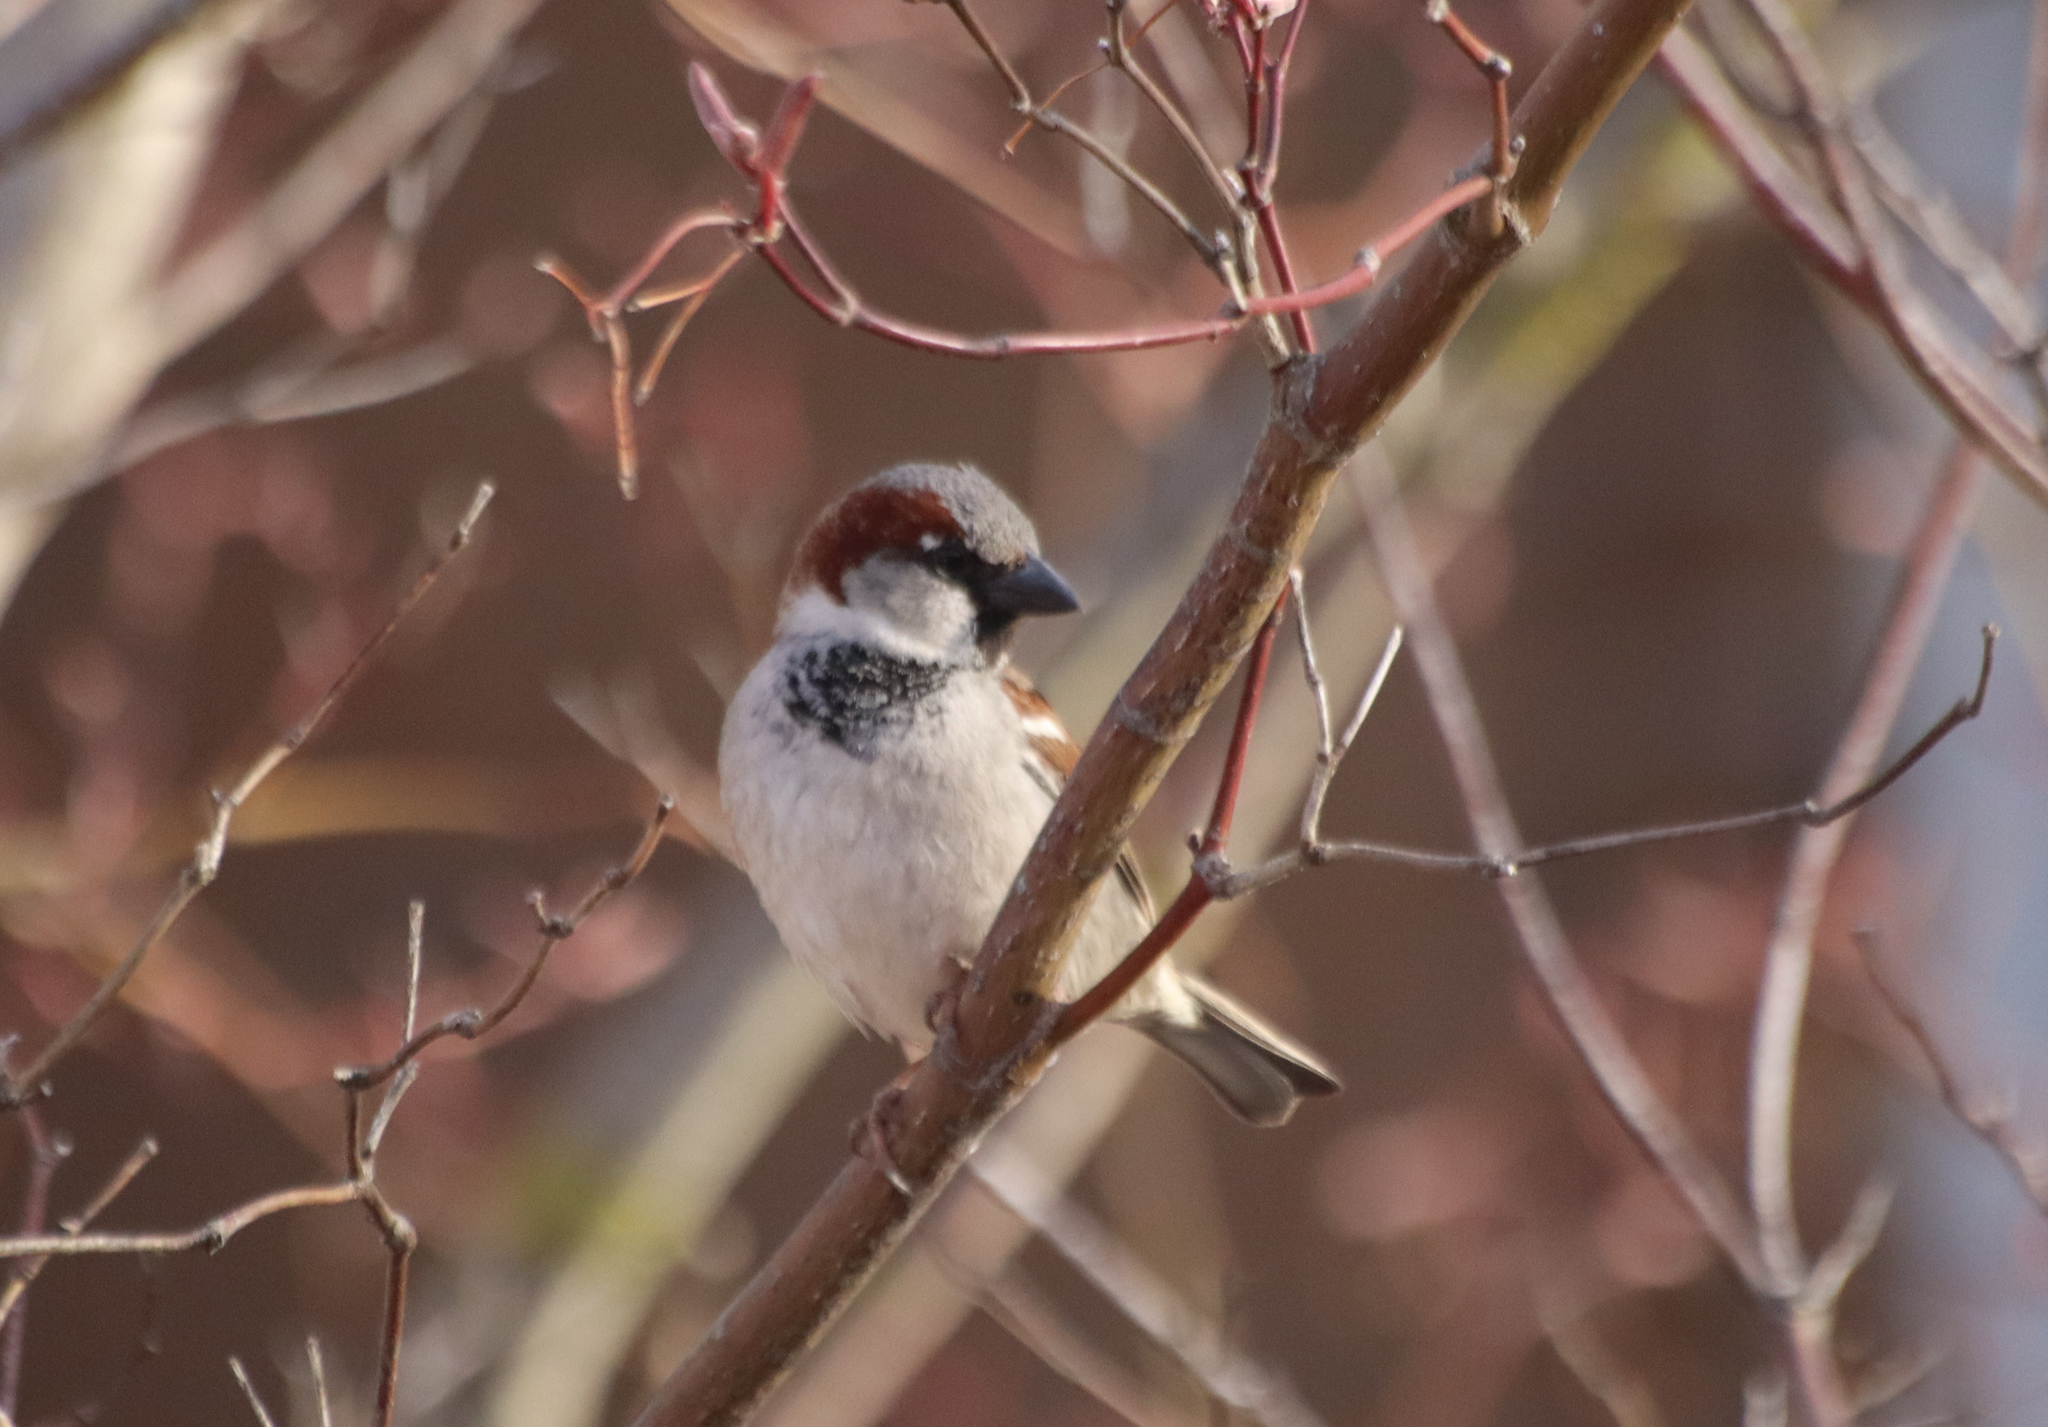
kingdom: Animalia
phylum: Chordata
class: Aves
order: Passeriformes
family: Passeridae
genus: Passer
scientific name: Passer domesticus
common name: House sparrow
